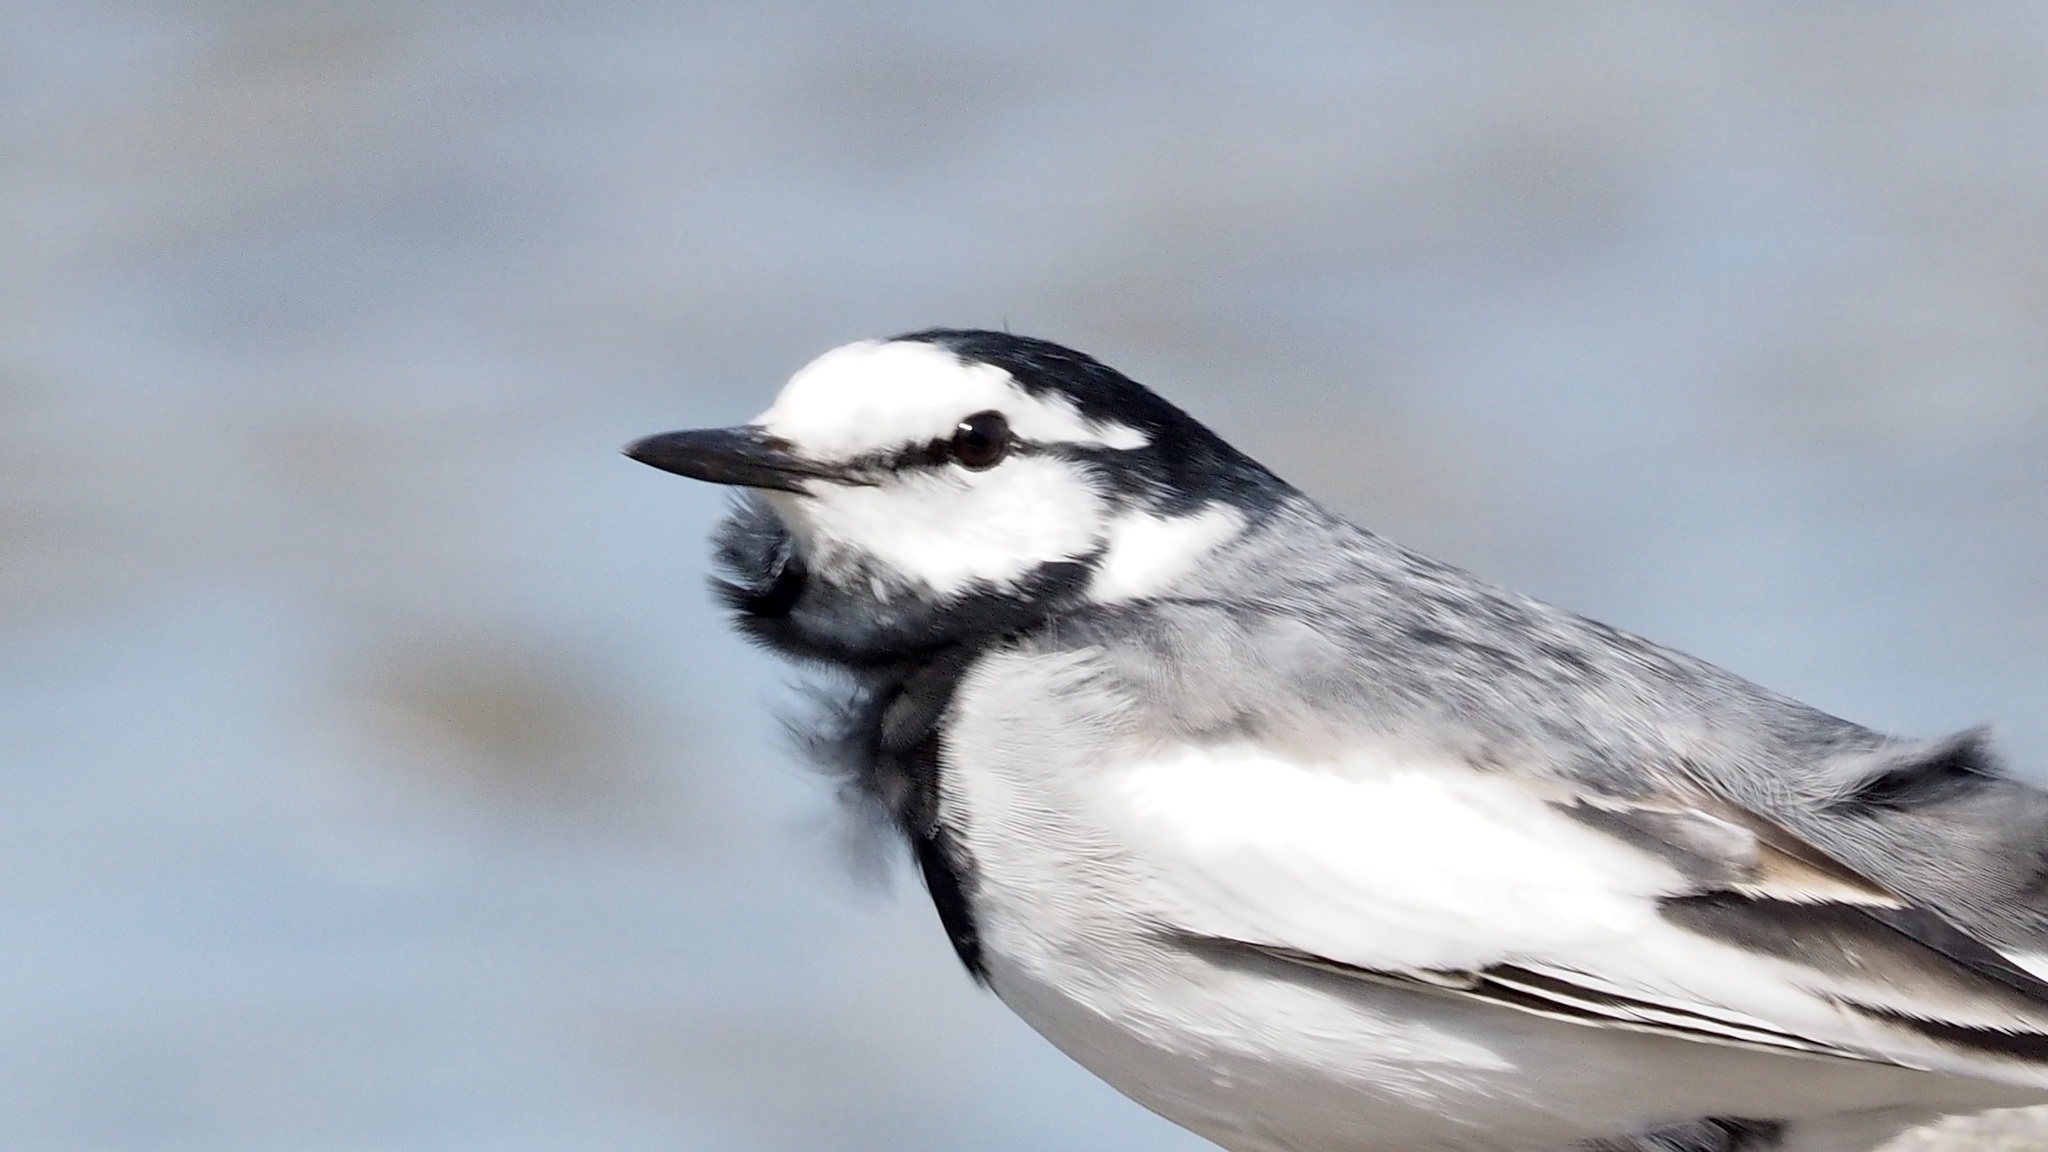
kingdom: Animalia
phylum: Chordata
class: Aves
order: Passeriformes
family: Motacillidae
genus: Motacilla
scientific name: Motacilla alba
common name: White wagtail
